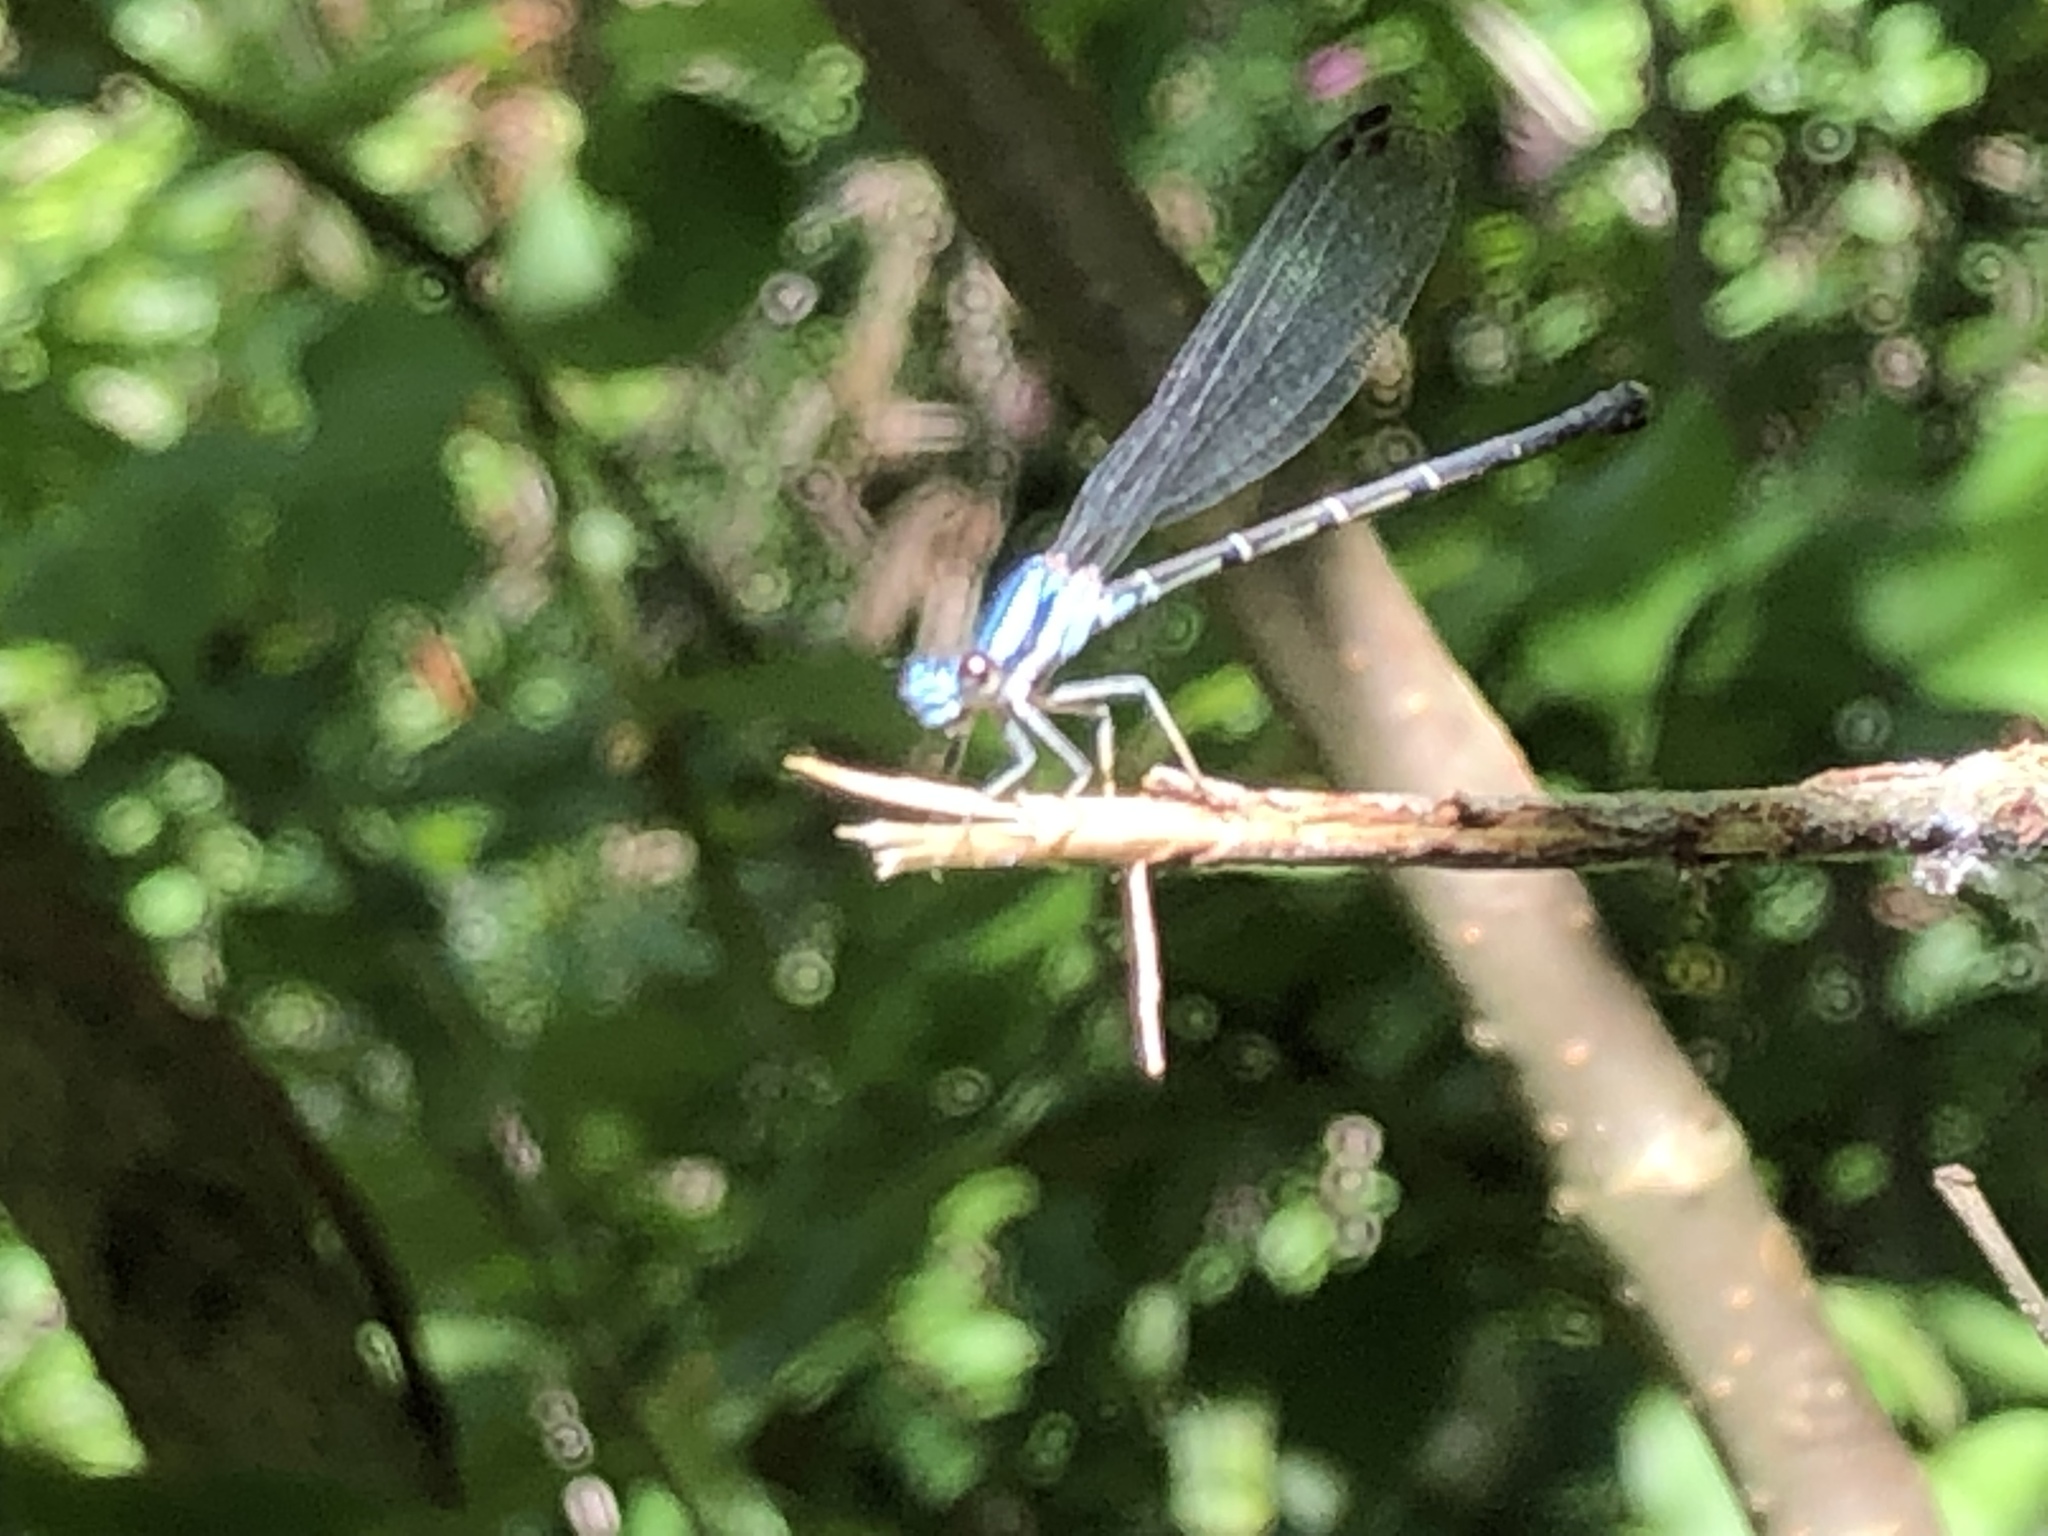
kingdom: Animalia
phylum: Arthropoda
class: Insecta
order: Odonata
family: Coenagrionidae
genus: Argia
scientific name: Argia tibialis
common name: Blue-tipped dancer
